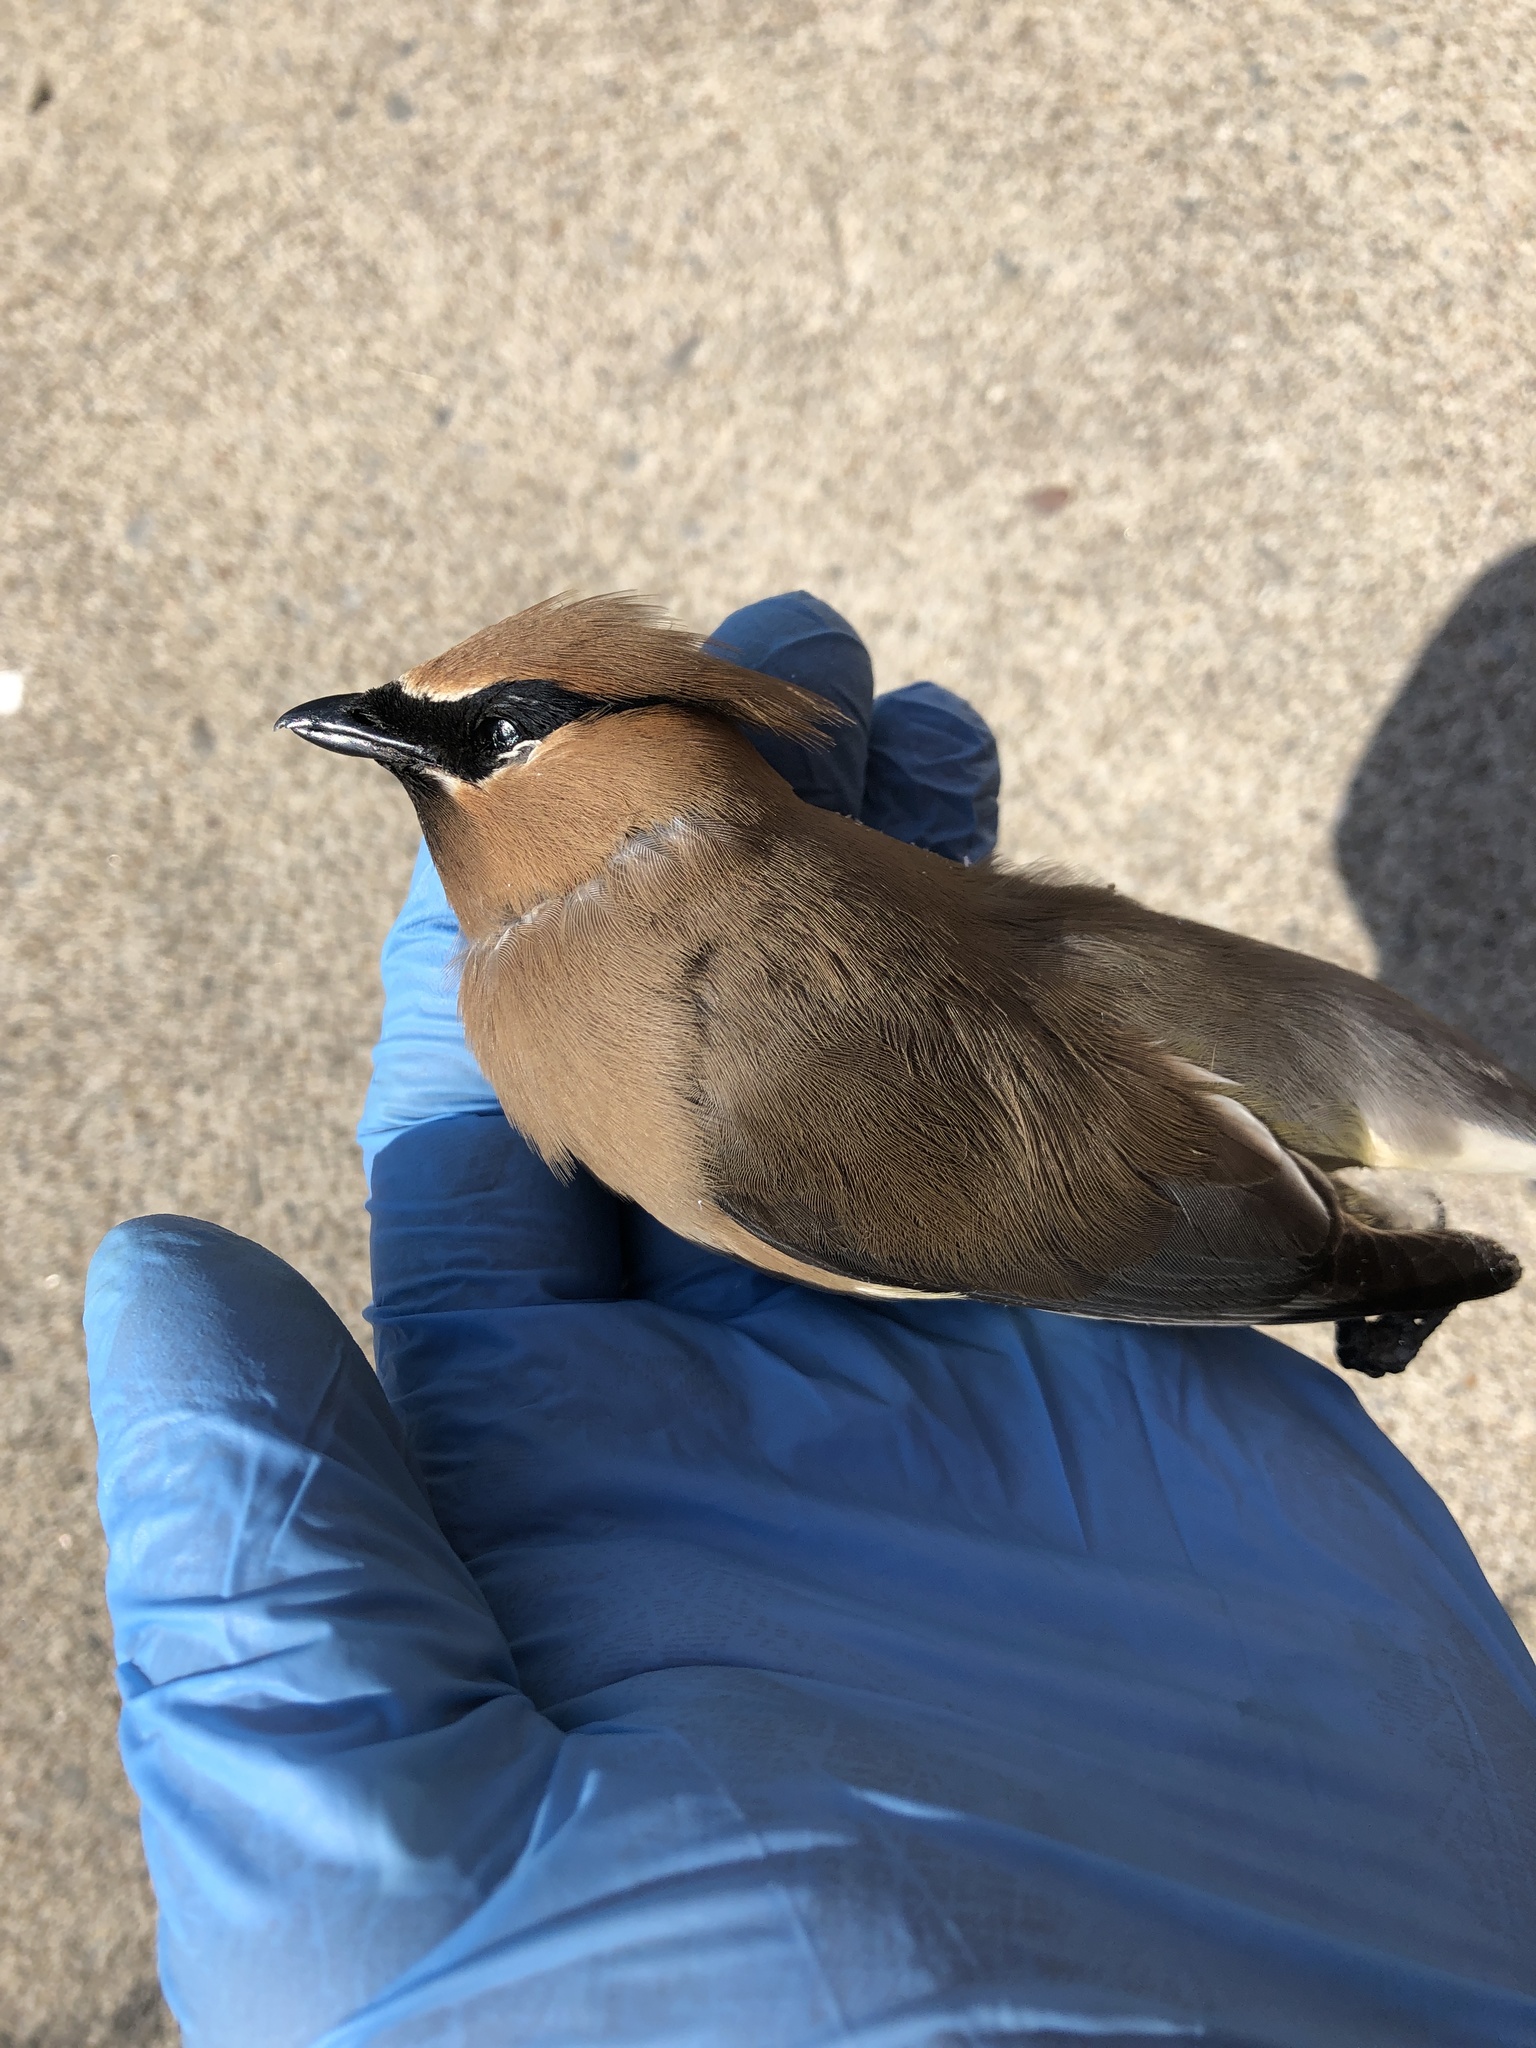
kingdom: Animalia
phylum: Chordata
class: Aves
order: Passeriformes
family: Bombycillidae
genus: Bombycilla
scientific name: Bombycilla cedrorum
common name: Cedar waxwing
